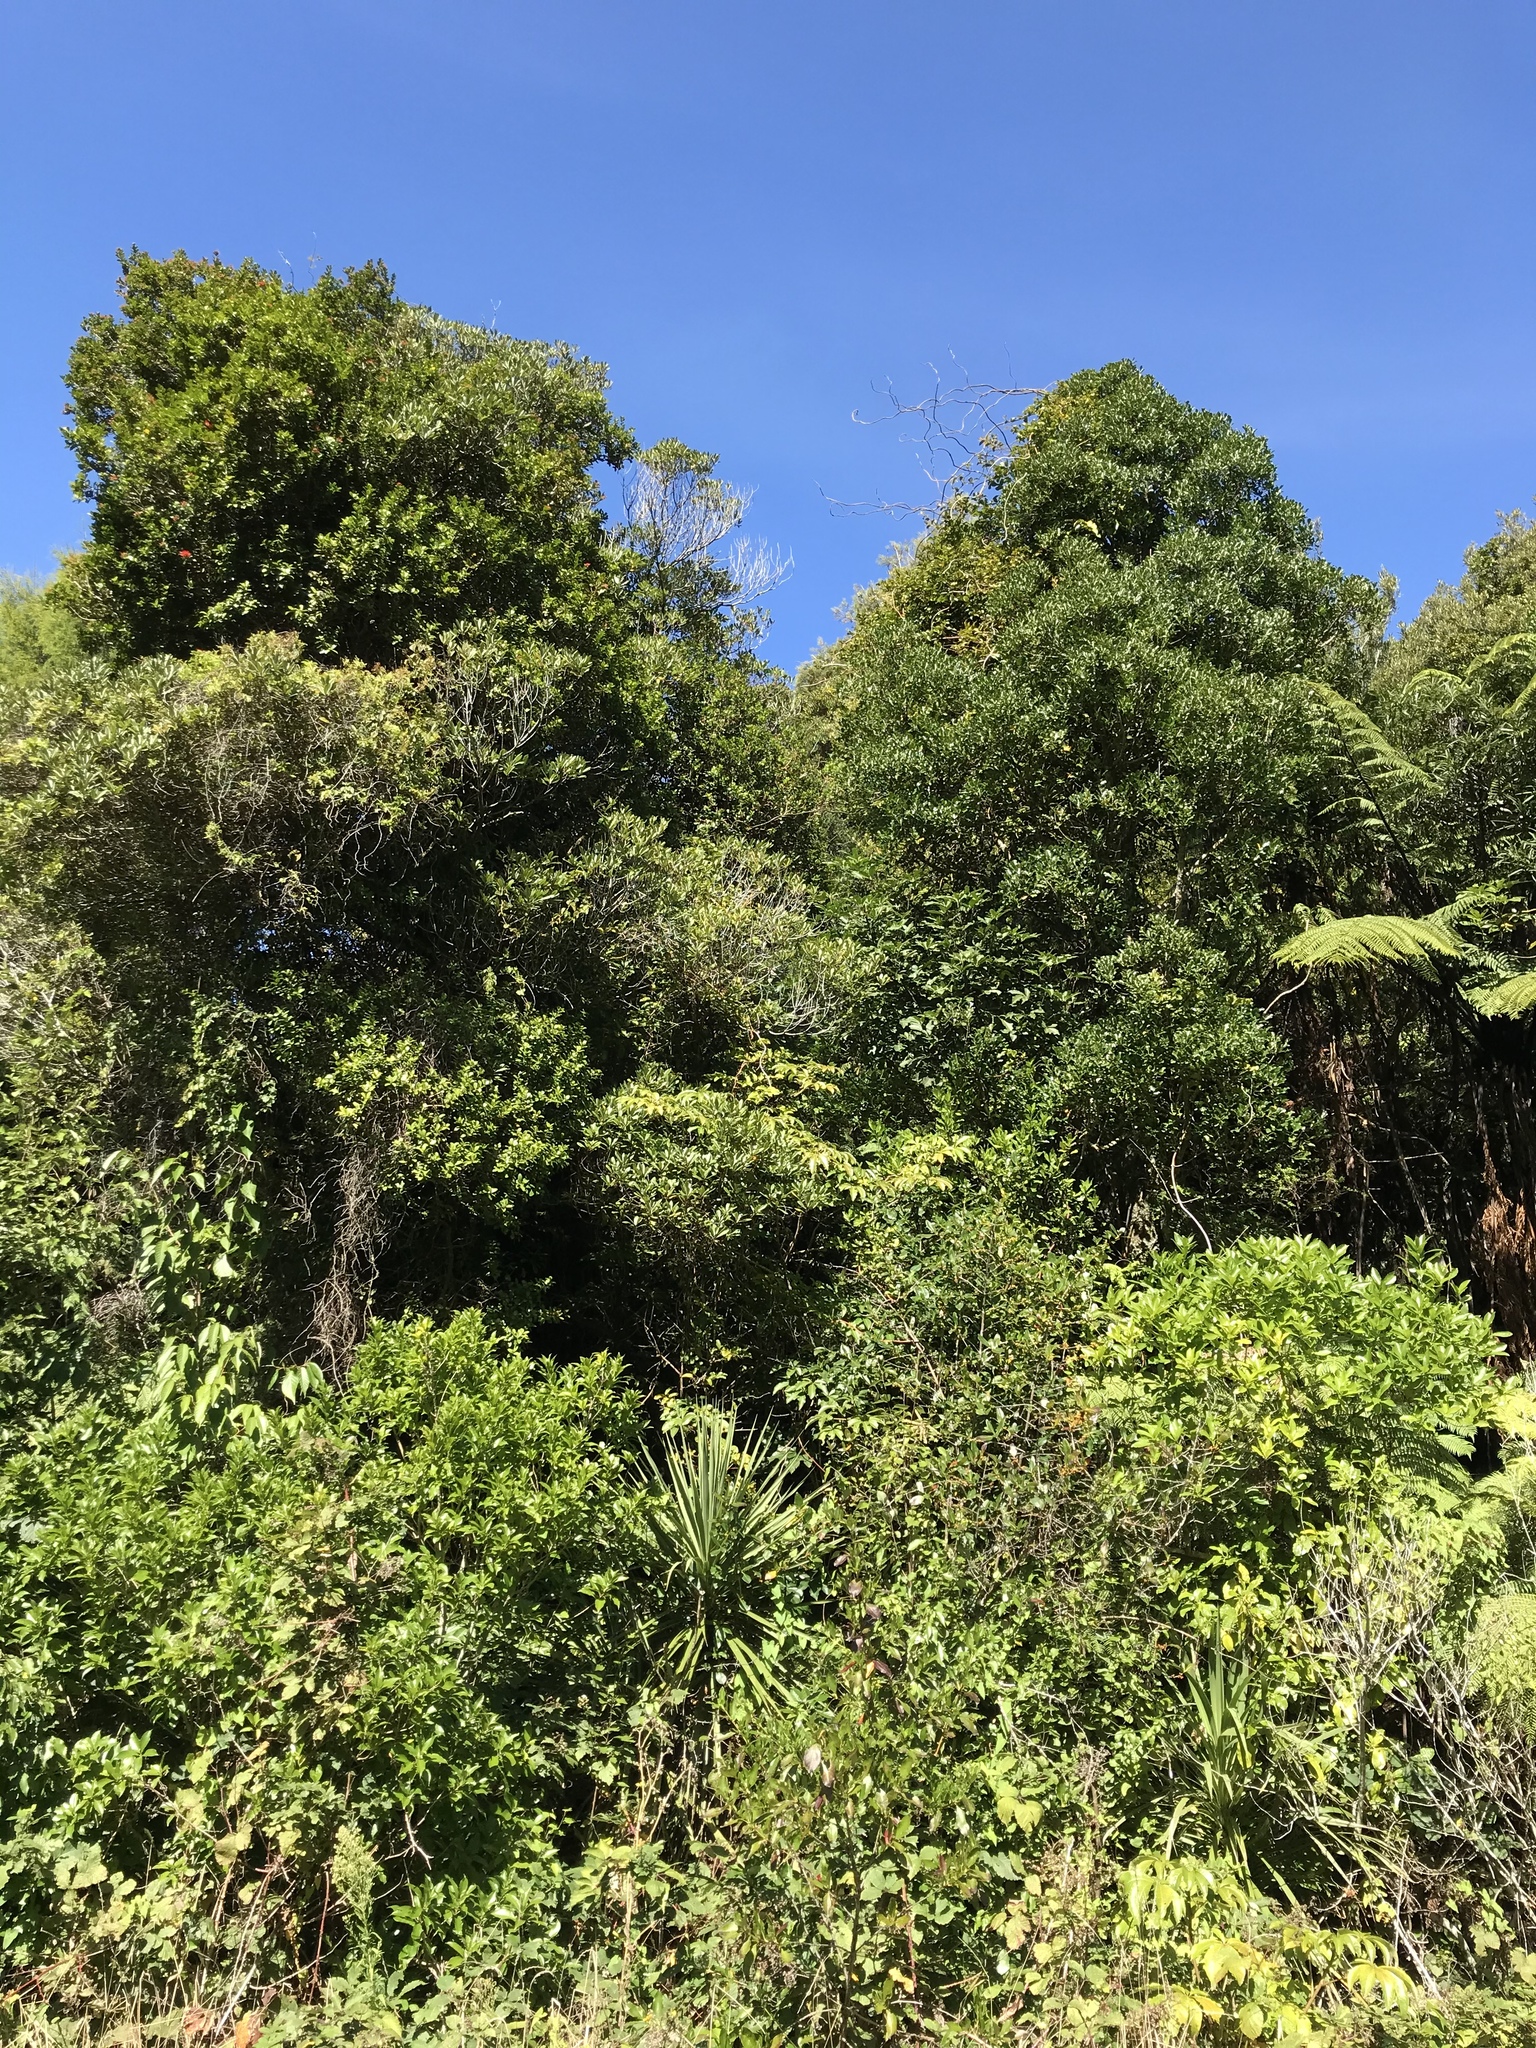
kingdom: Plantae
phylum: Tracheophyta
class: Magnoliopsida
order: Oxalidales
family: Elaeocarpaceae
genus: Elaeocarpus
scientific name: Elaeocarpus dentatus
